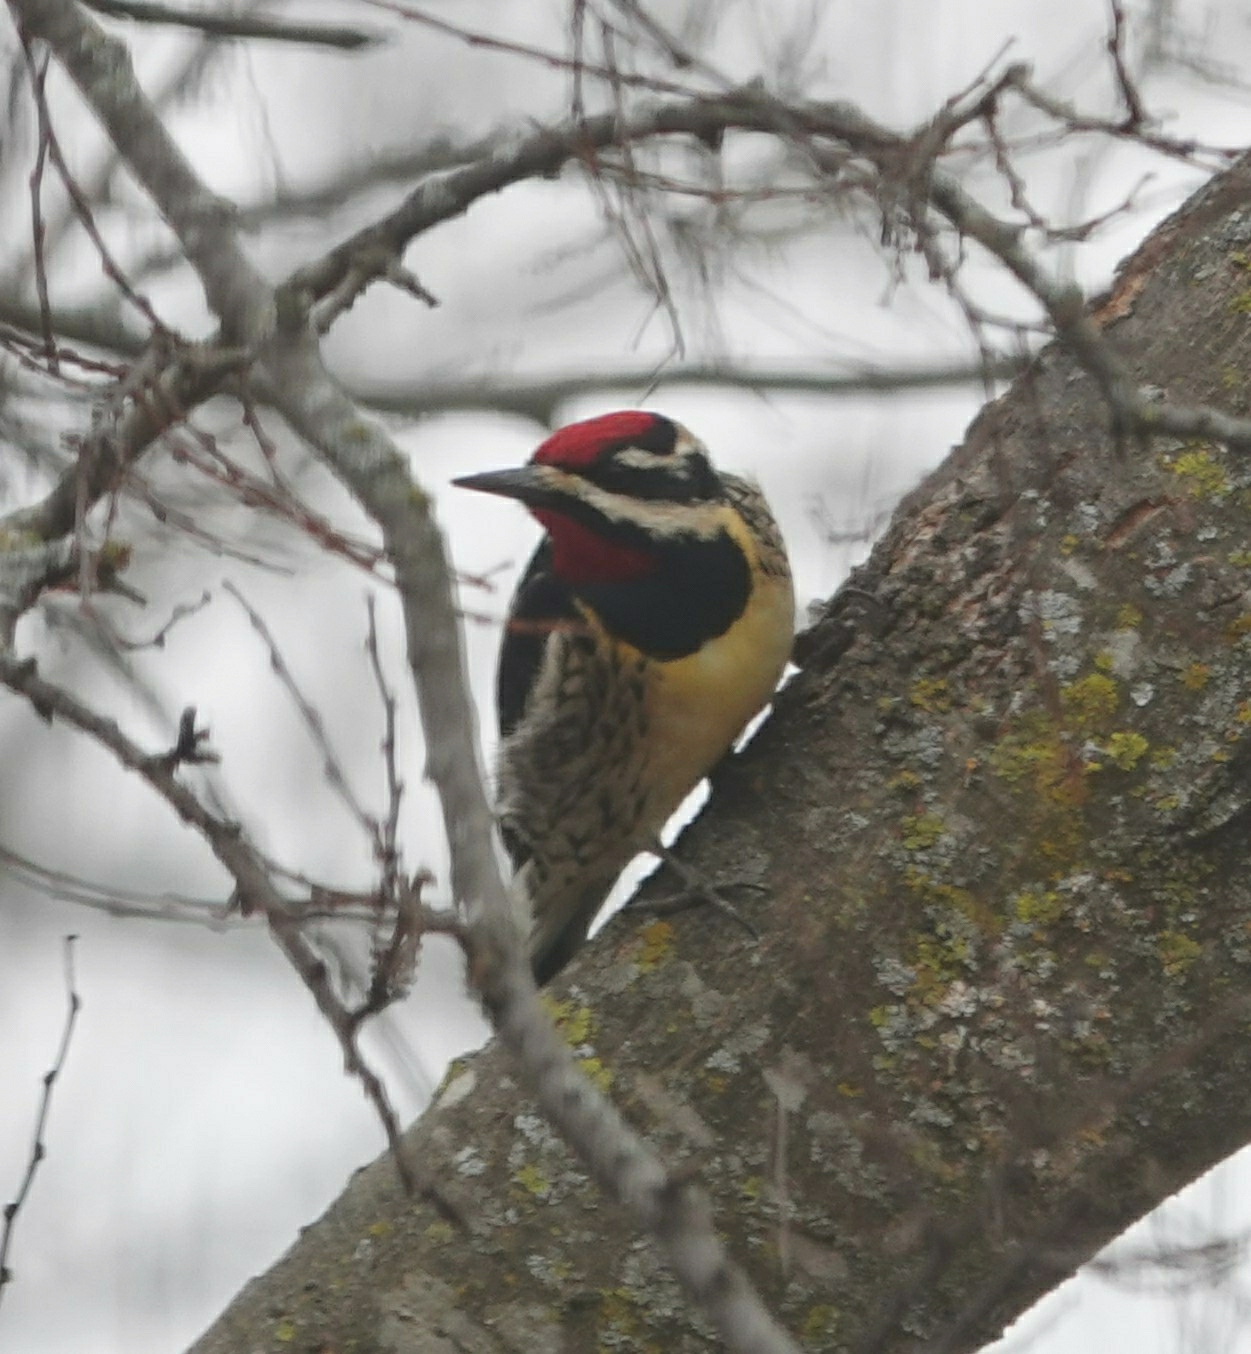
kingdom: Animalia
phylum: Chordata
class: Aves
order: Piciformes
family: Picidae
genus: Sphyrapicus
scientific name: Sphyrapicus varius
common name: Yellow-bellied sapsucker
